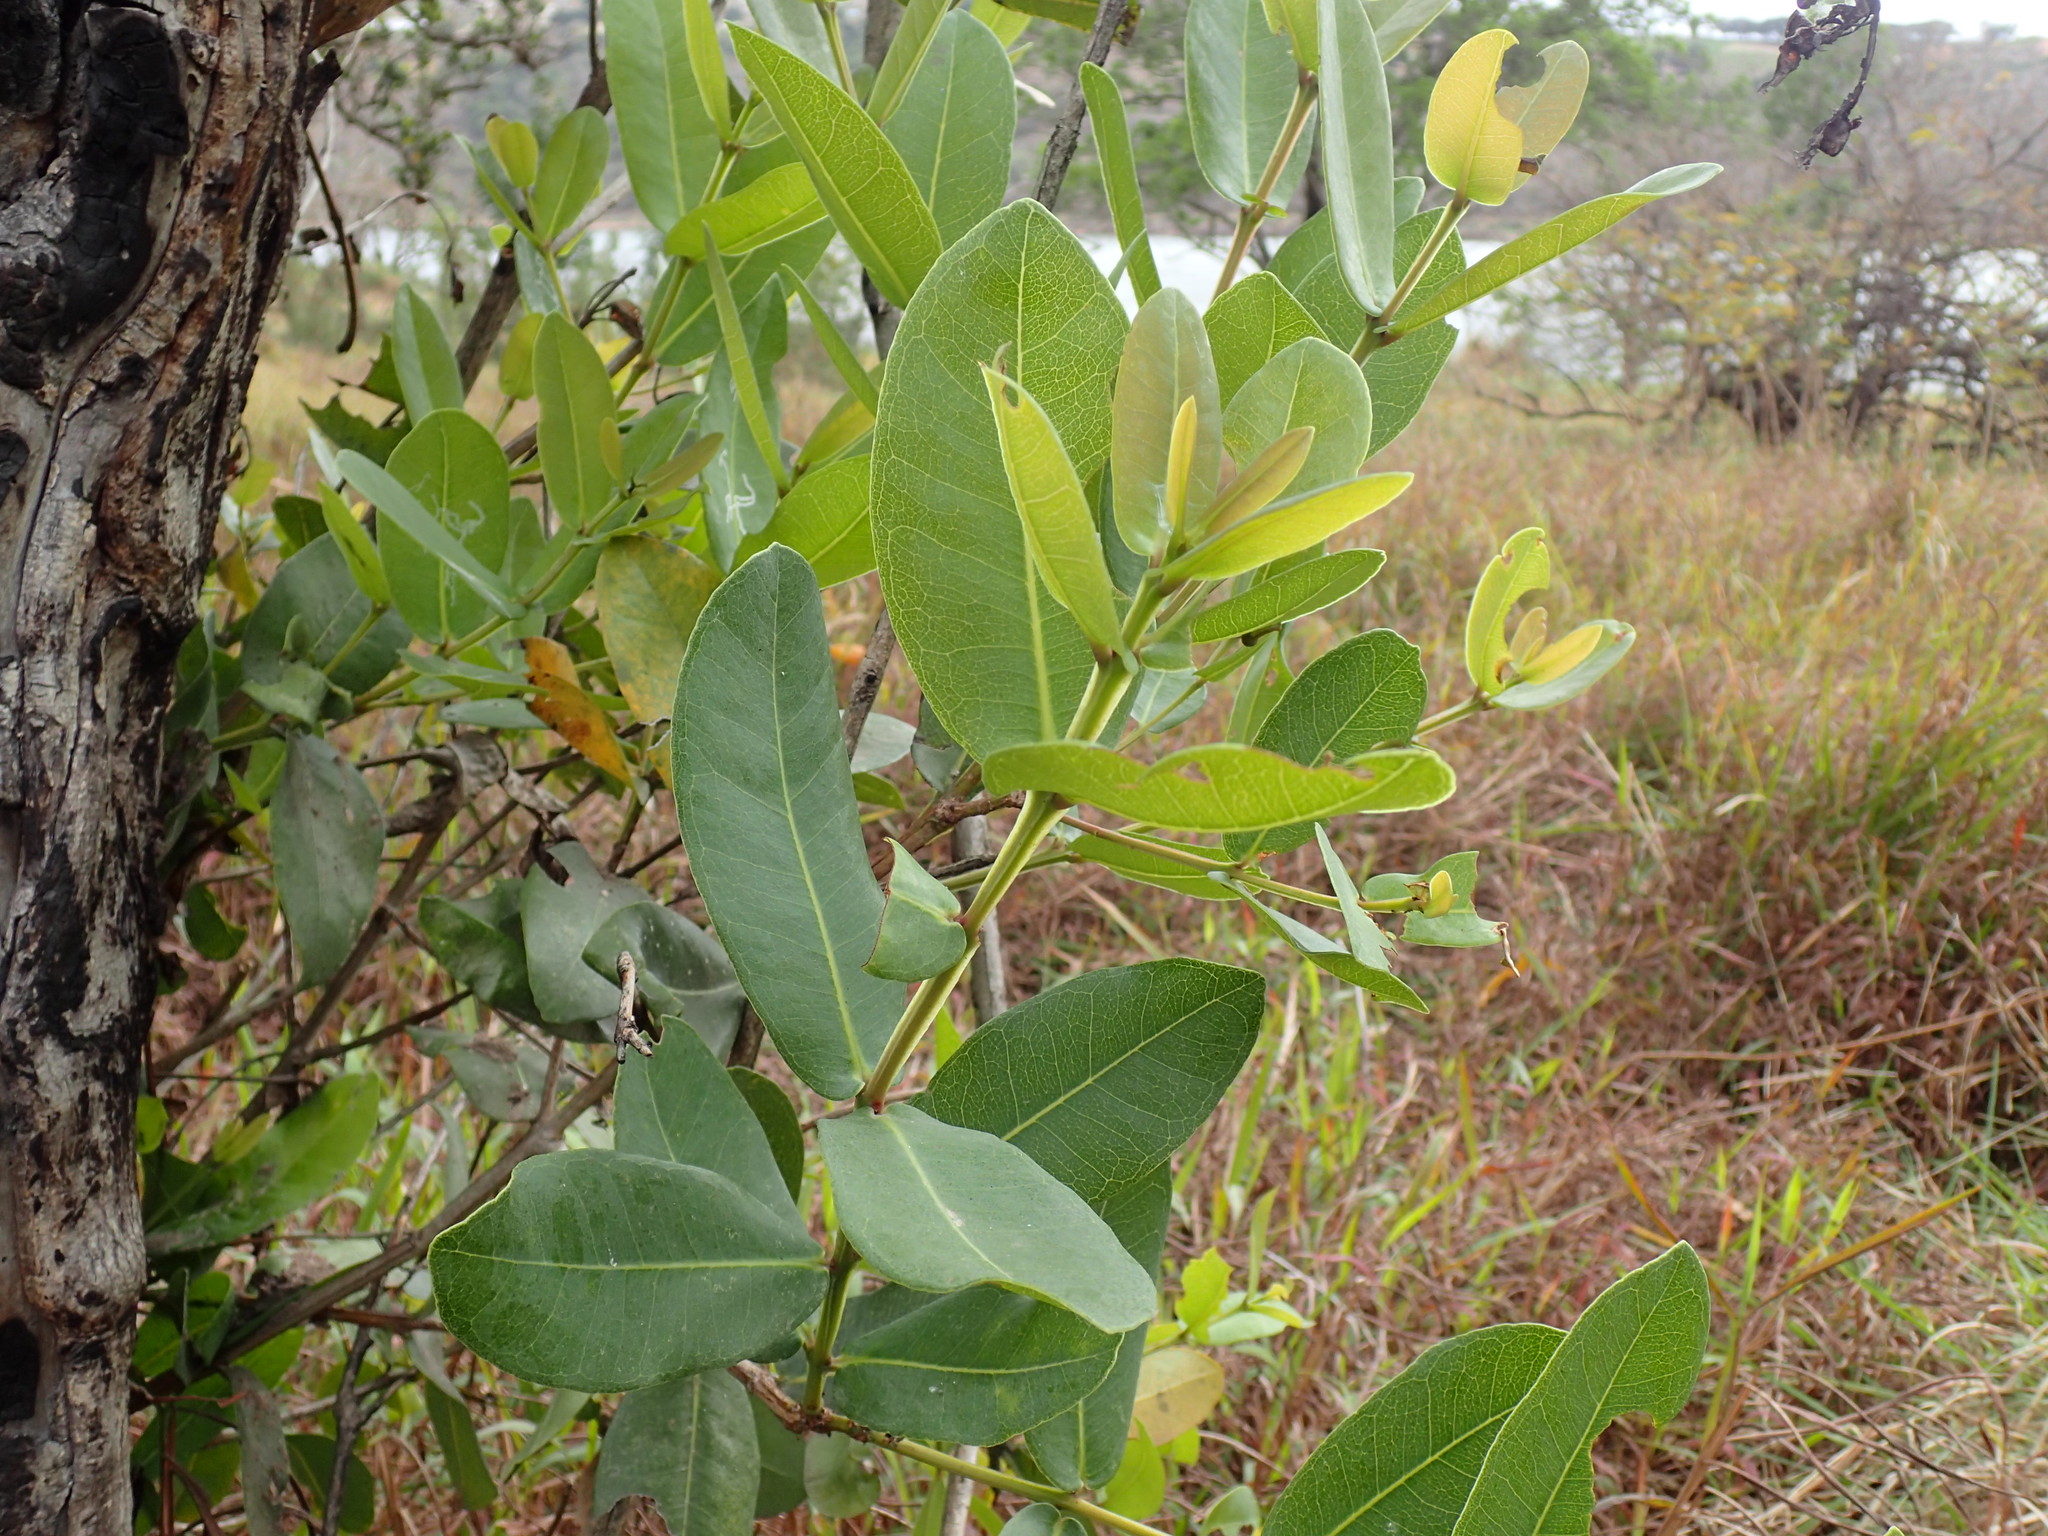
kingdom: Plantae
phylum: Tracheophyta
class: Magnoliopsida
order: Myrtales
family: Myrtaceae
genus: Syzygium
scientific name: Syzygium cordatum
